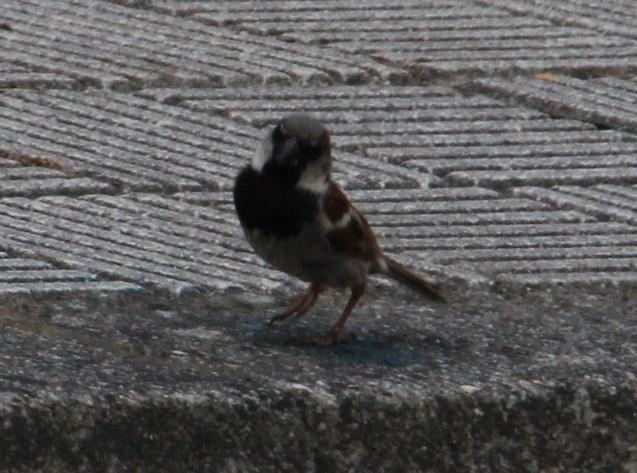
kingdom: Animalia
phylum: Chordata
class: Aves
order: Passeriformes
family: Passeridae
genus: Passer
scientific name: Passer domesticus
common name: House sparrow
